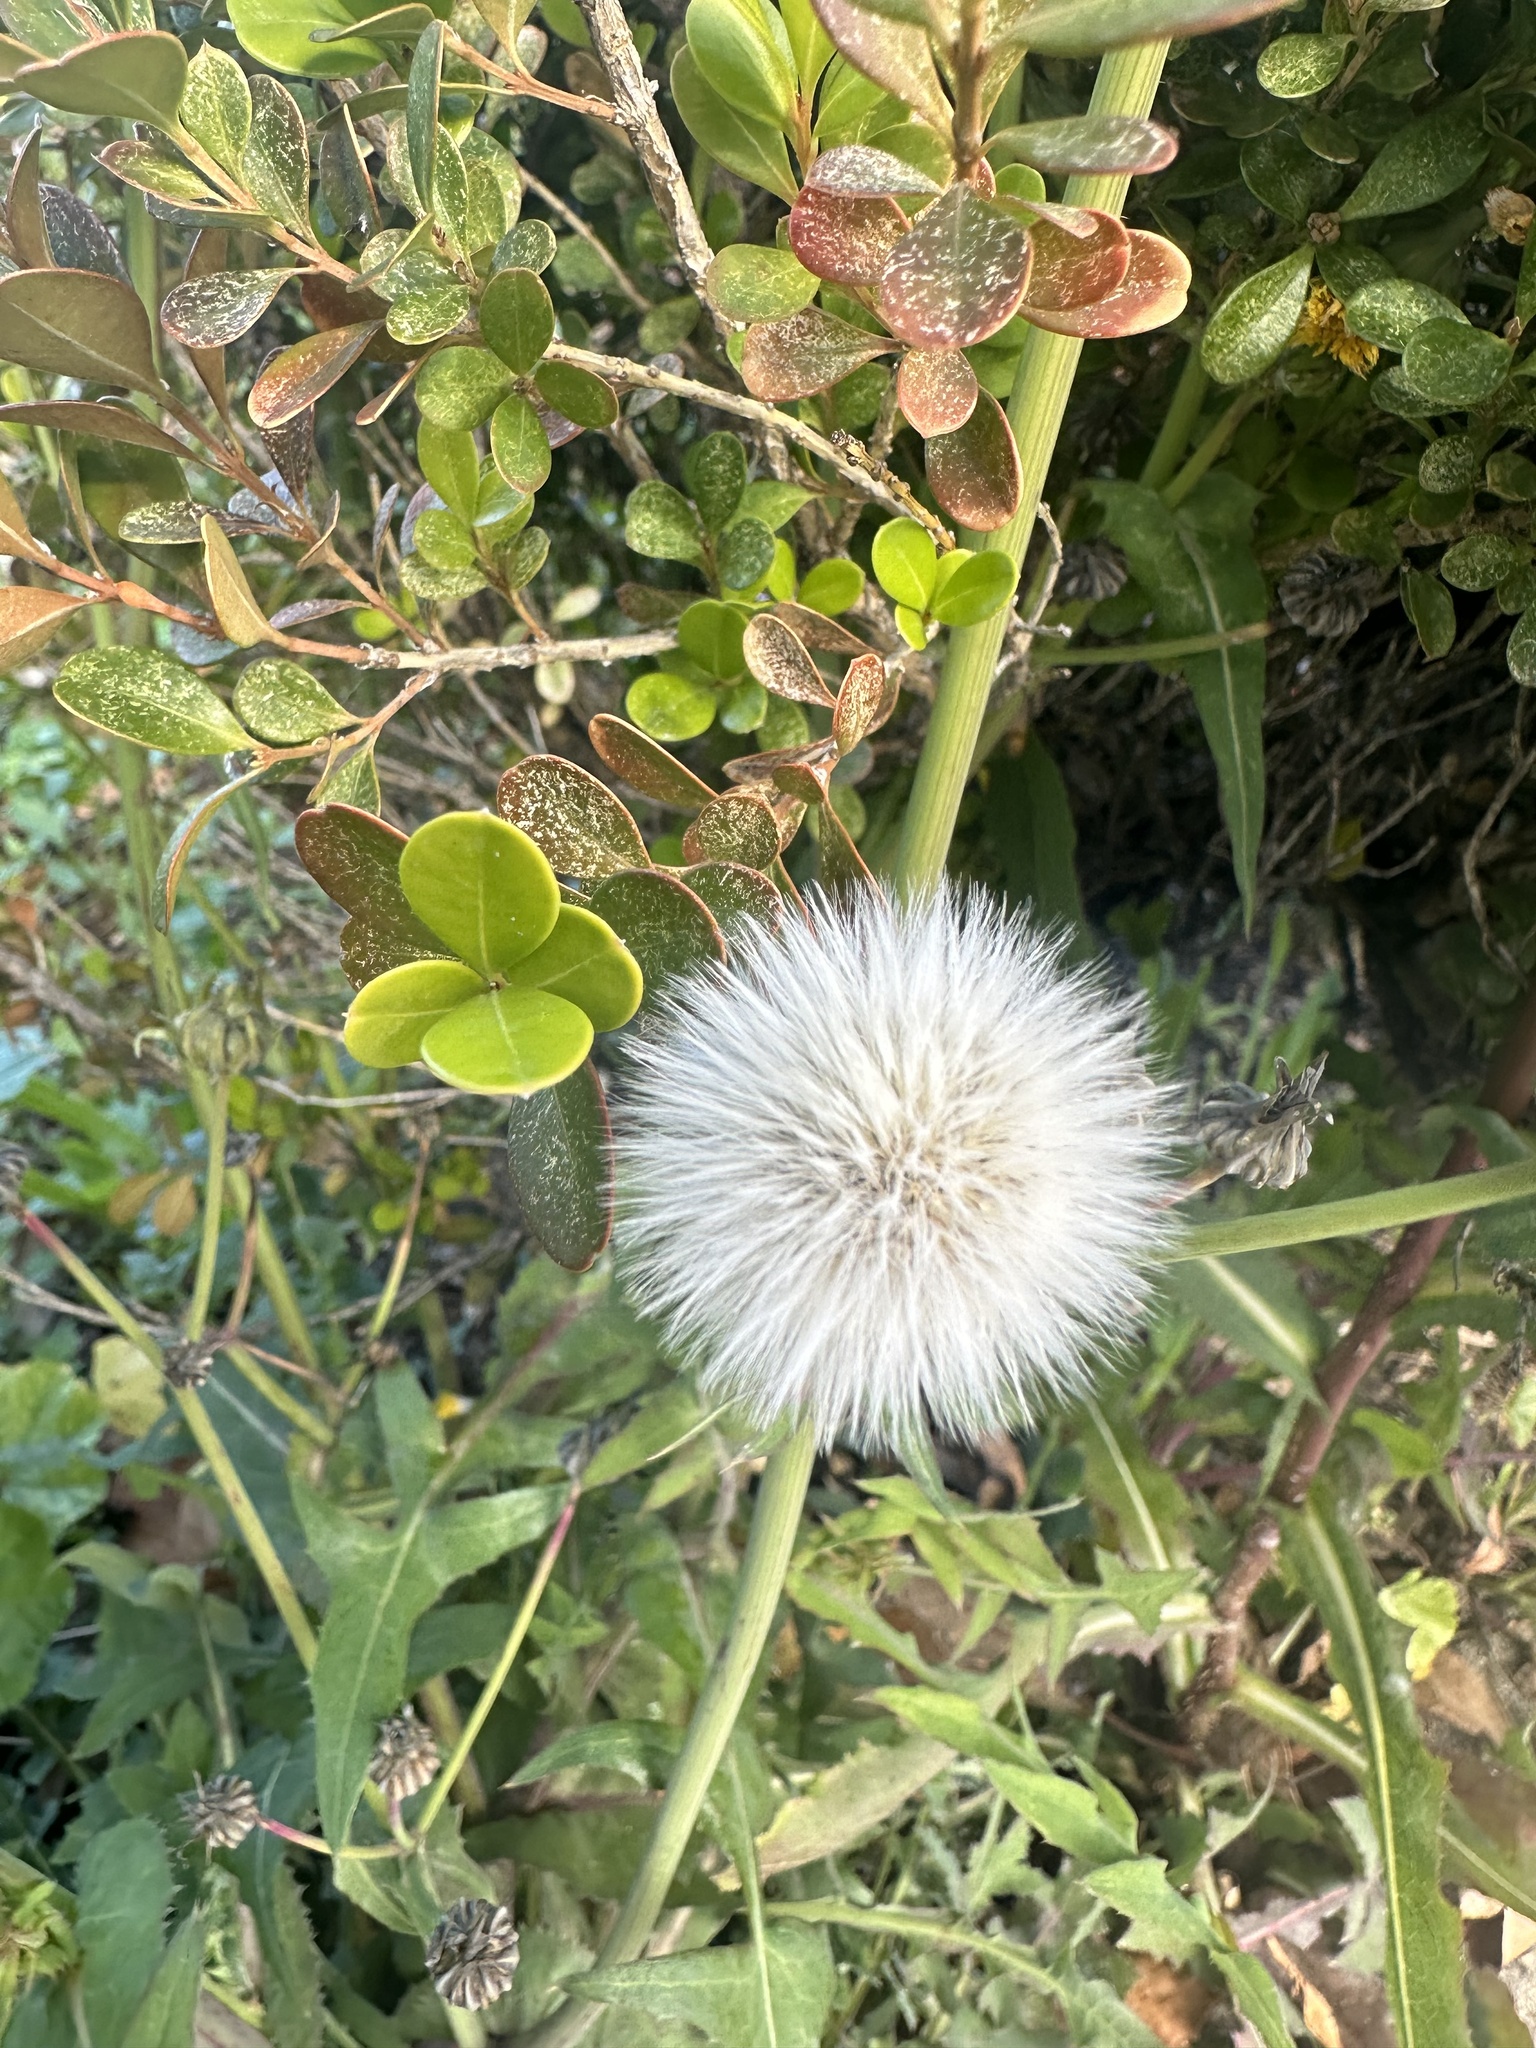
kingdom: Plantae
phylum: Tracheophyta
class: Magnoliopsida
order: Asterales
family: Asteraceae
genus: Sonchus
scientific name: Sonchus oleraceus
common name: Common sowthistle
